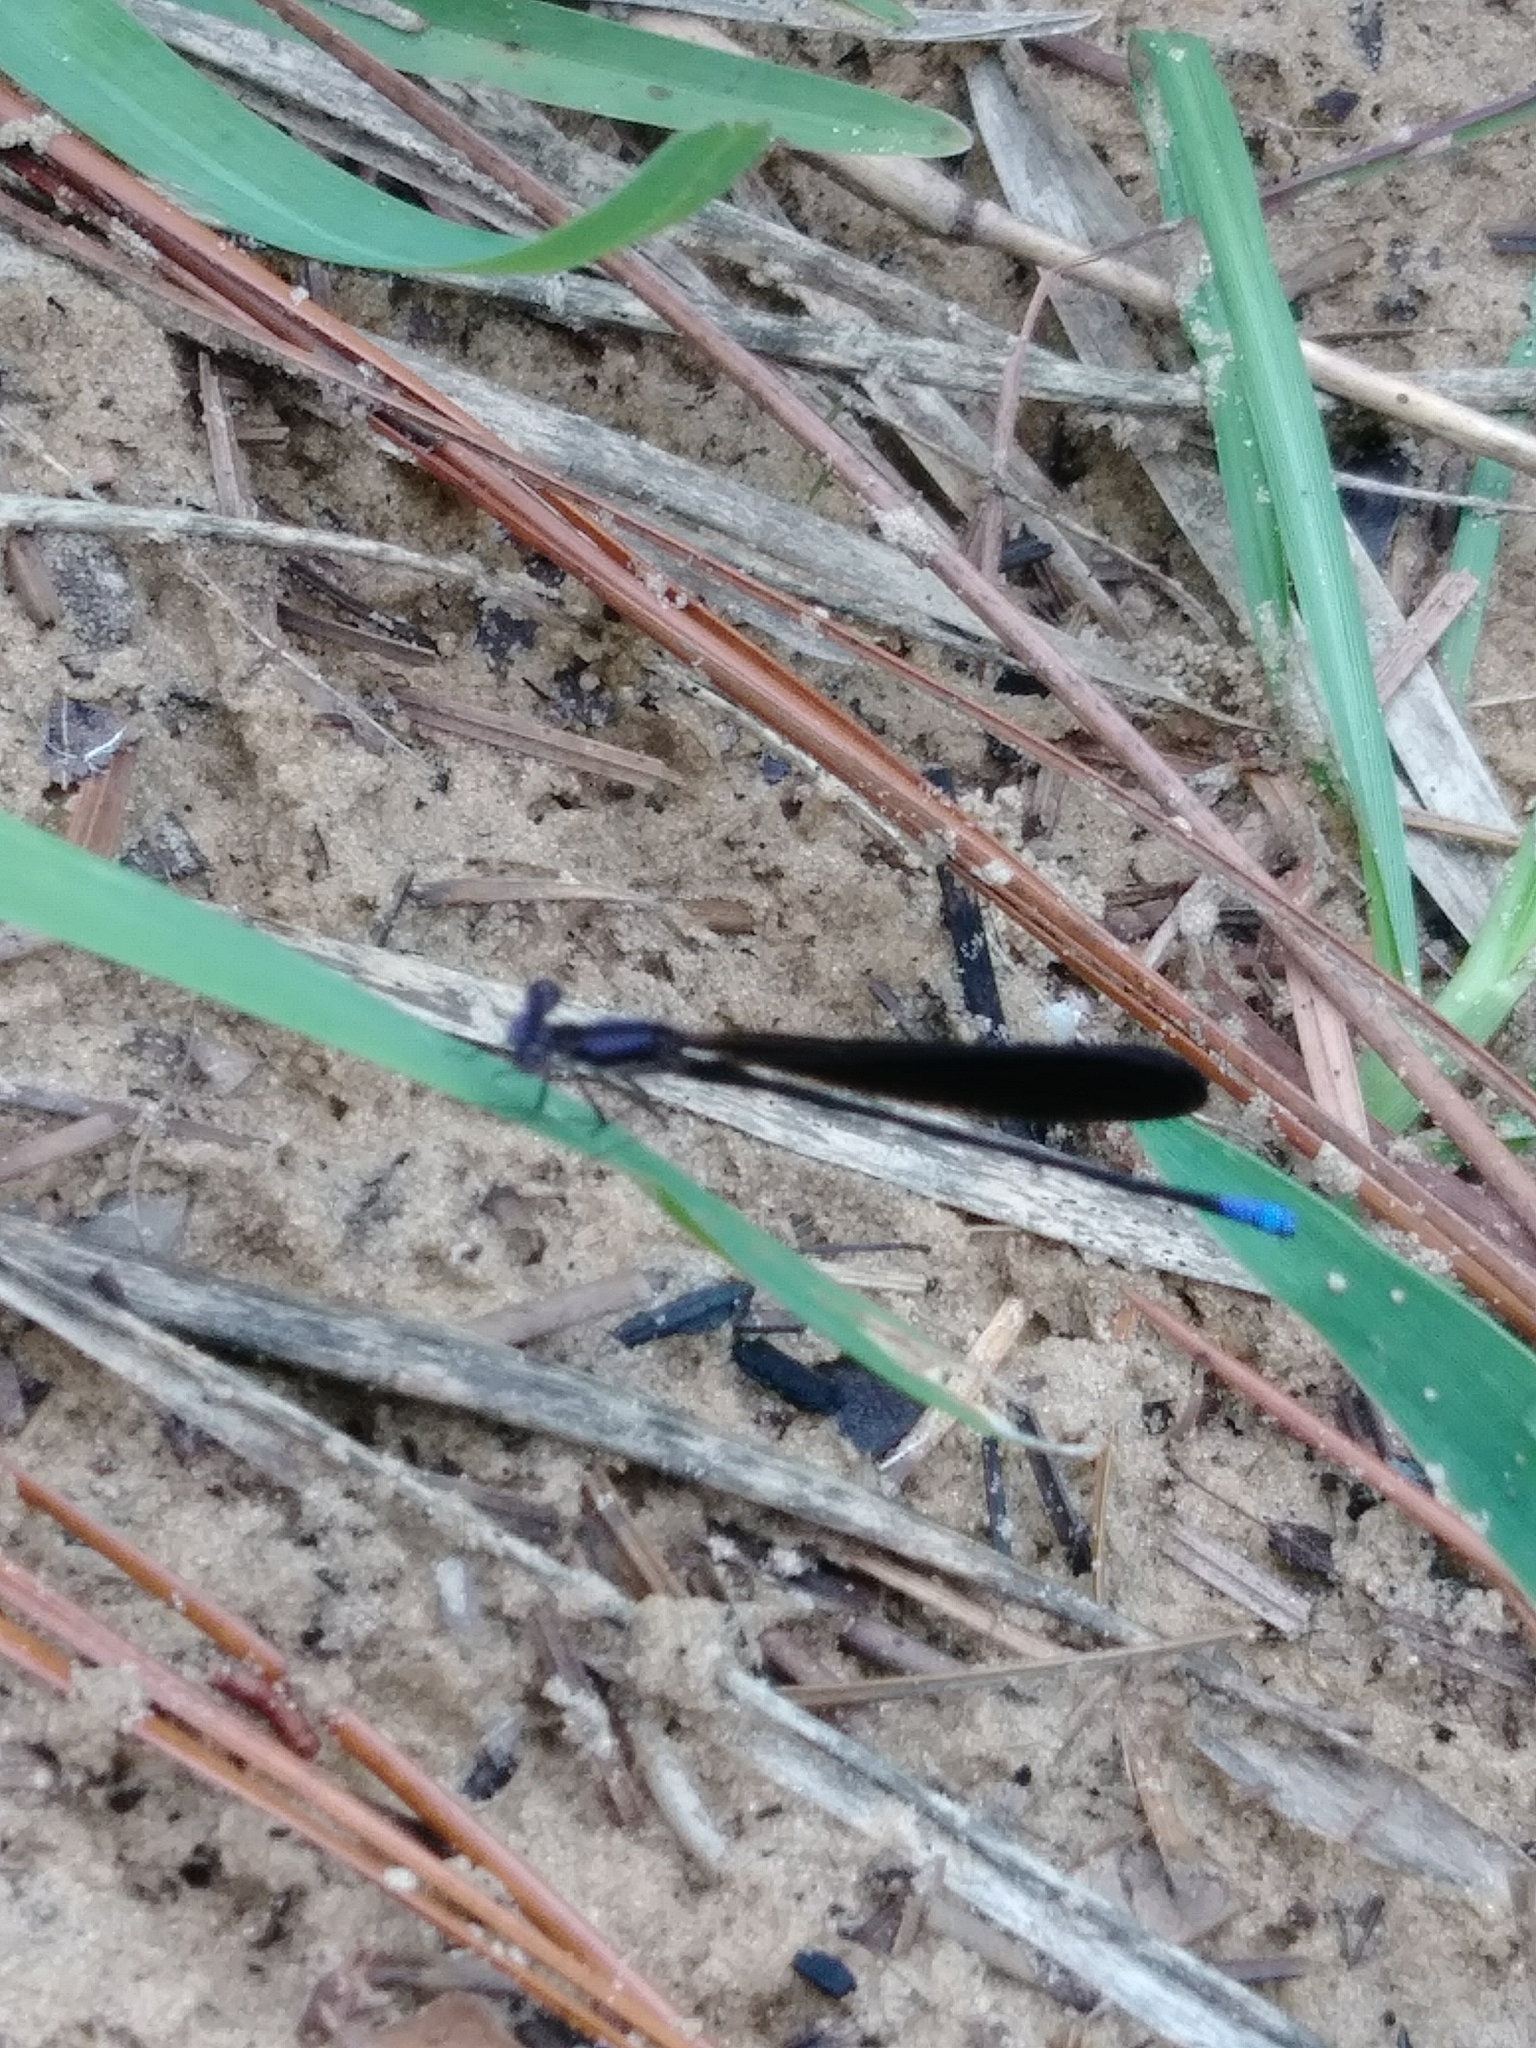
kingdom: Animalia
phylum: Arthropoda
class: Insecta
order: Odonata
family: Coenagrionidae
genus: Argia
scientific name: Argia fumipennis
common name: Variable dancer
